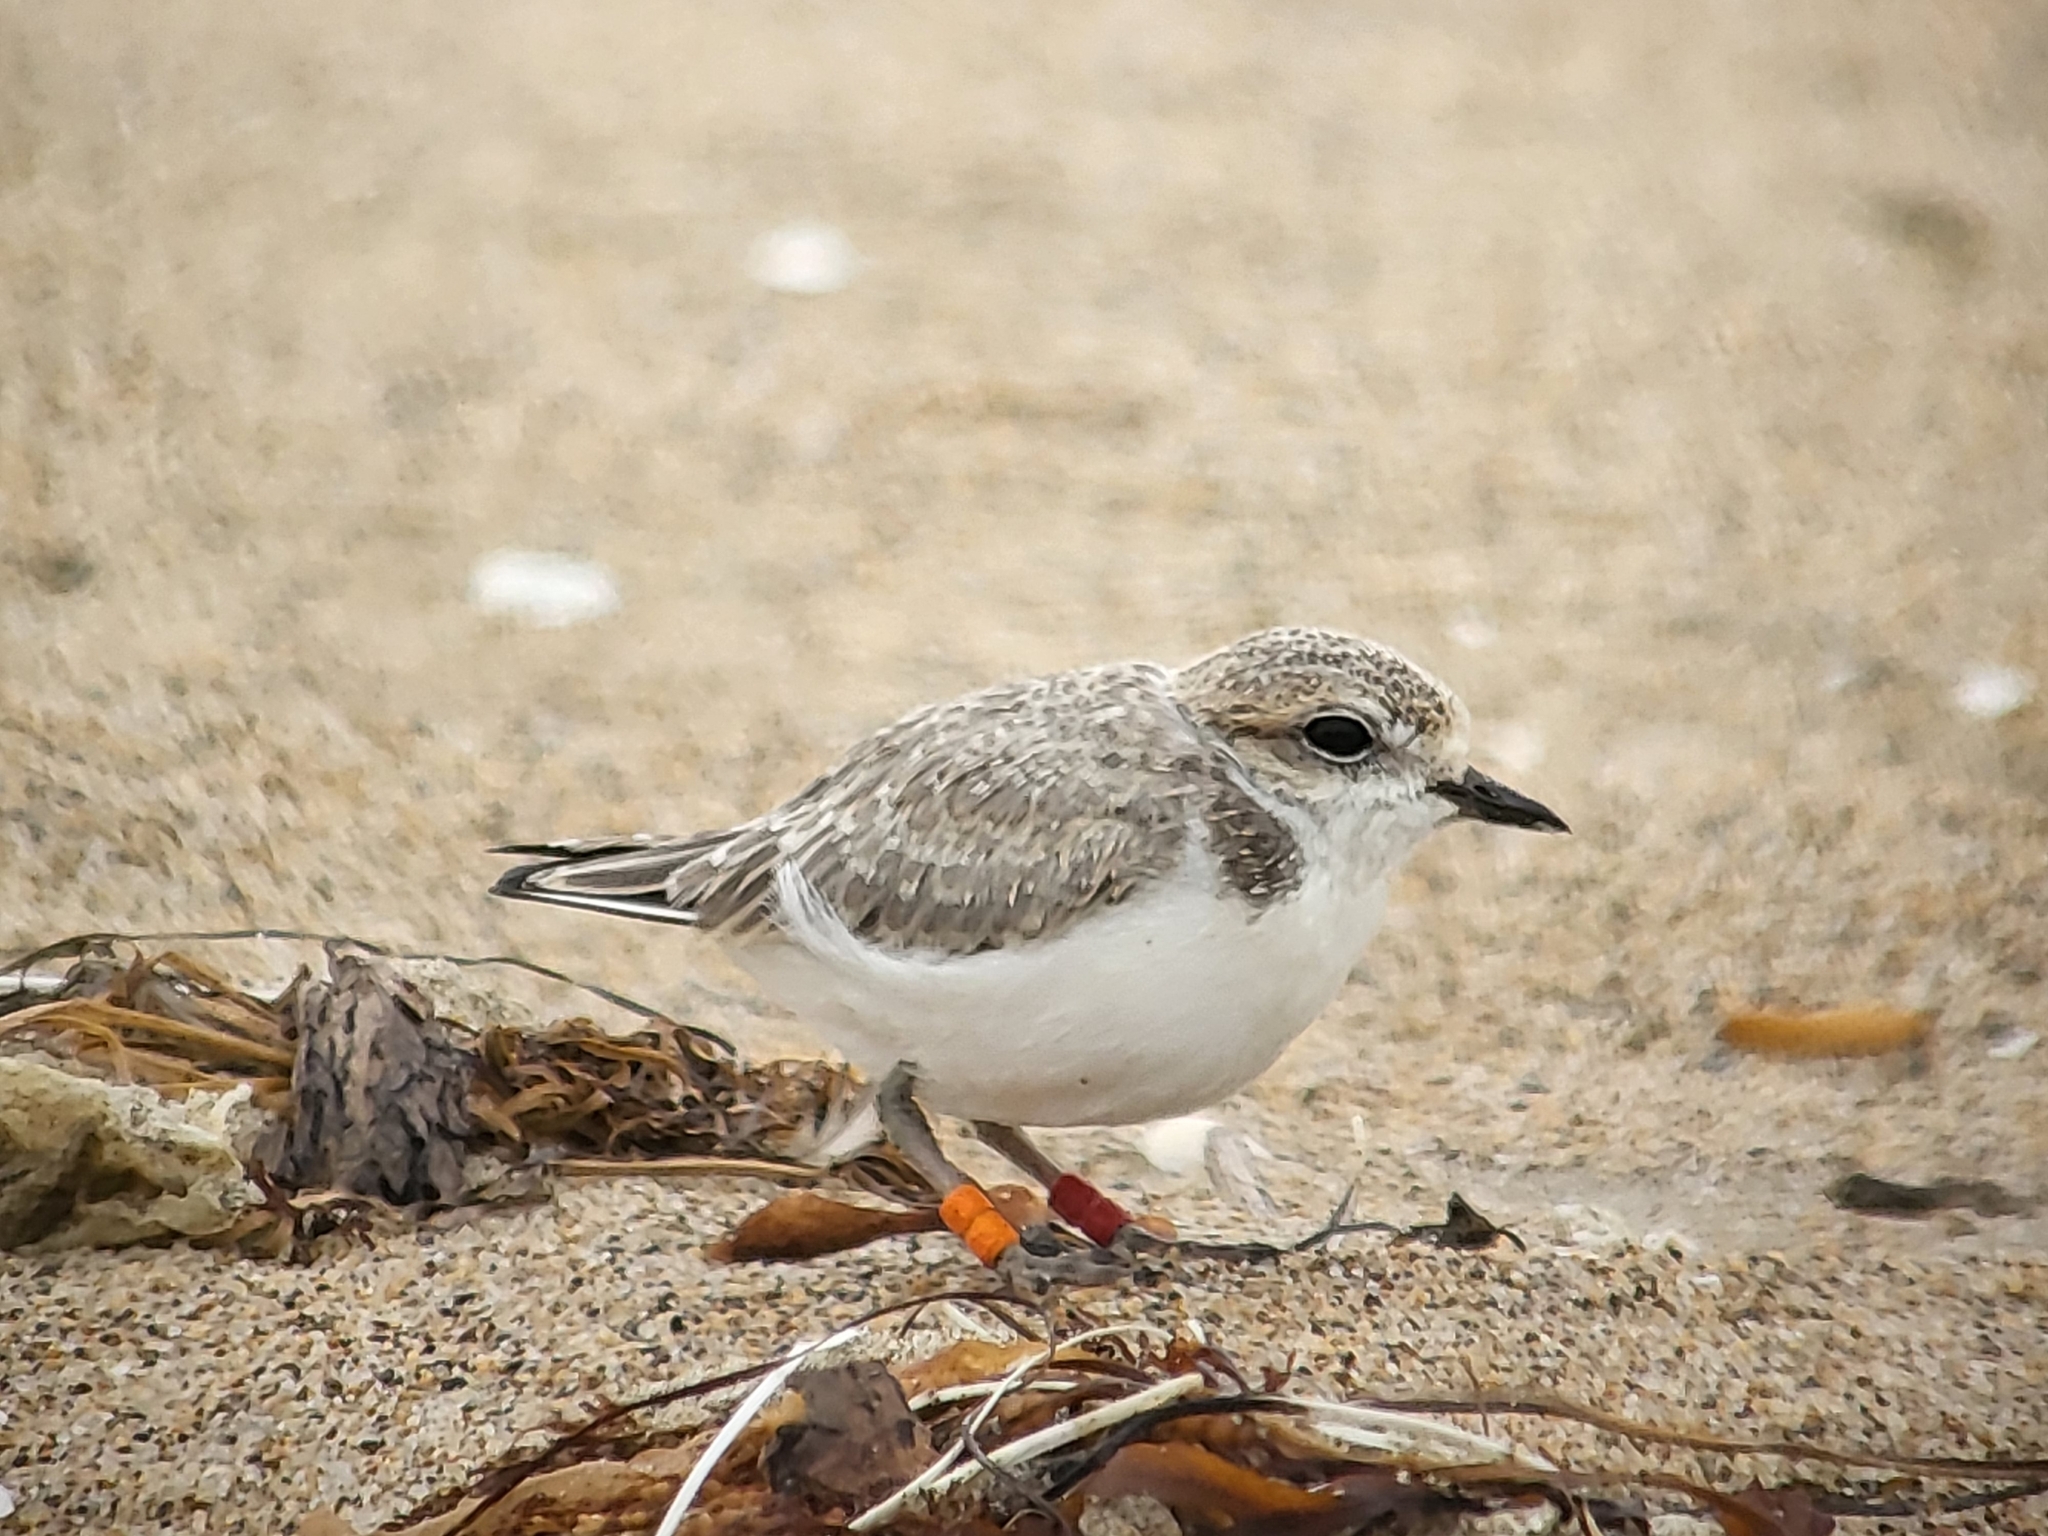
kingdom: Animalia
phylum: Chordata
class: Aves
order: Charadriiformes
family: Charadriidae
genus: Anarhynchus
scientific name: Anarhynchus
